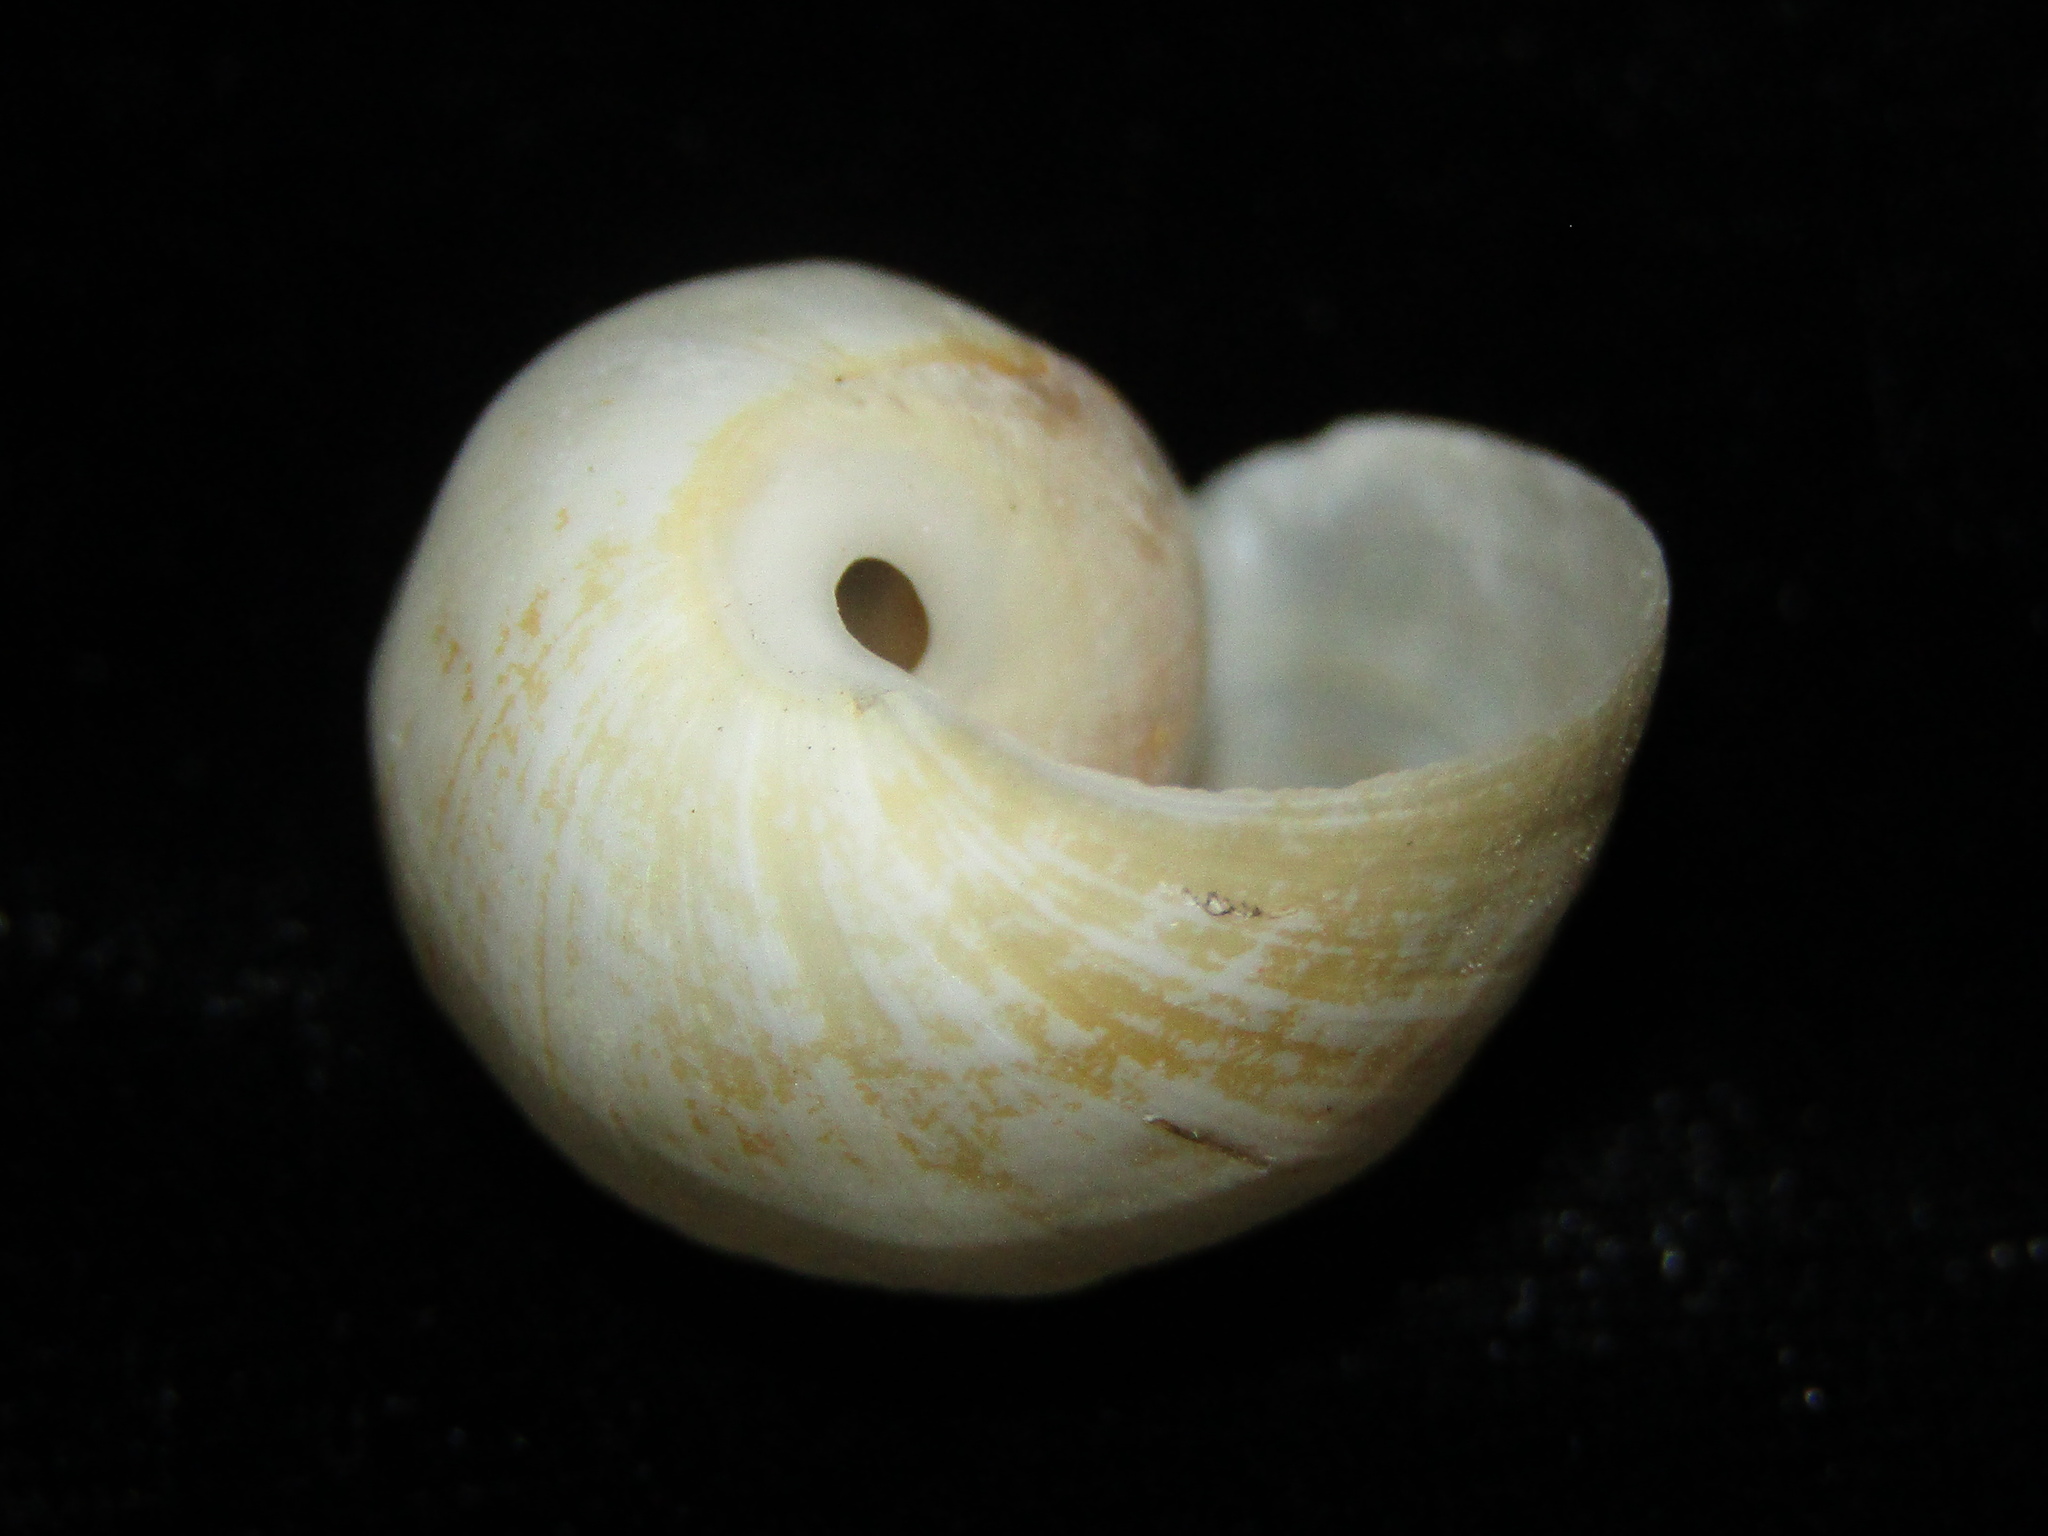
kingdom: Animalia
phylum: Mollusca
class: Gastropoda
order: Cephalaspidea
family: Haminoeidae
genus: Papawera
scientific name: Papawera zelandiae
